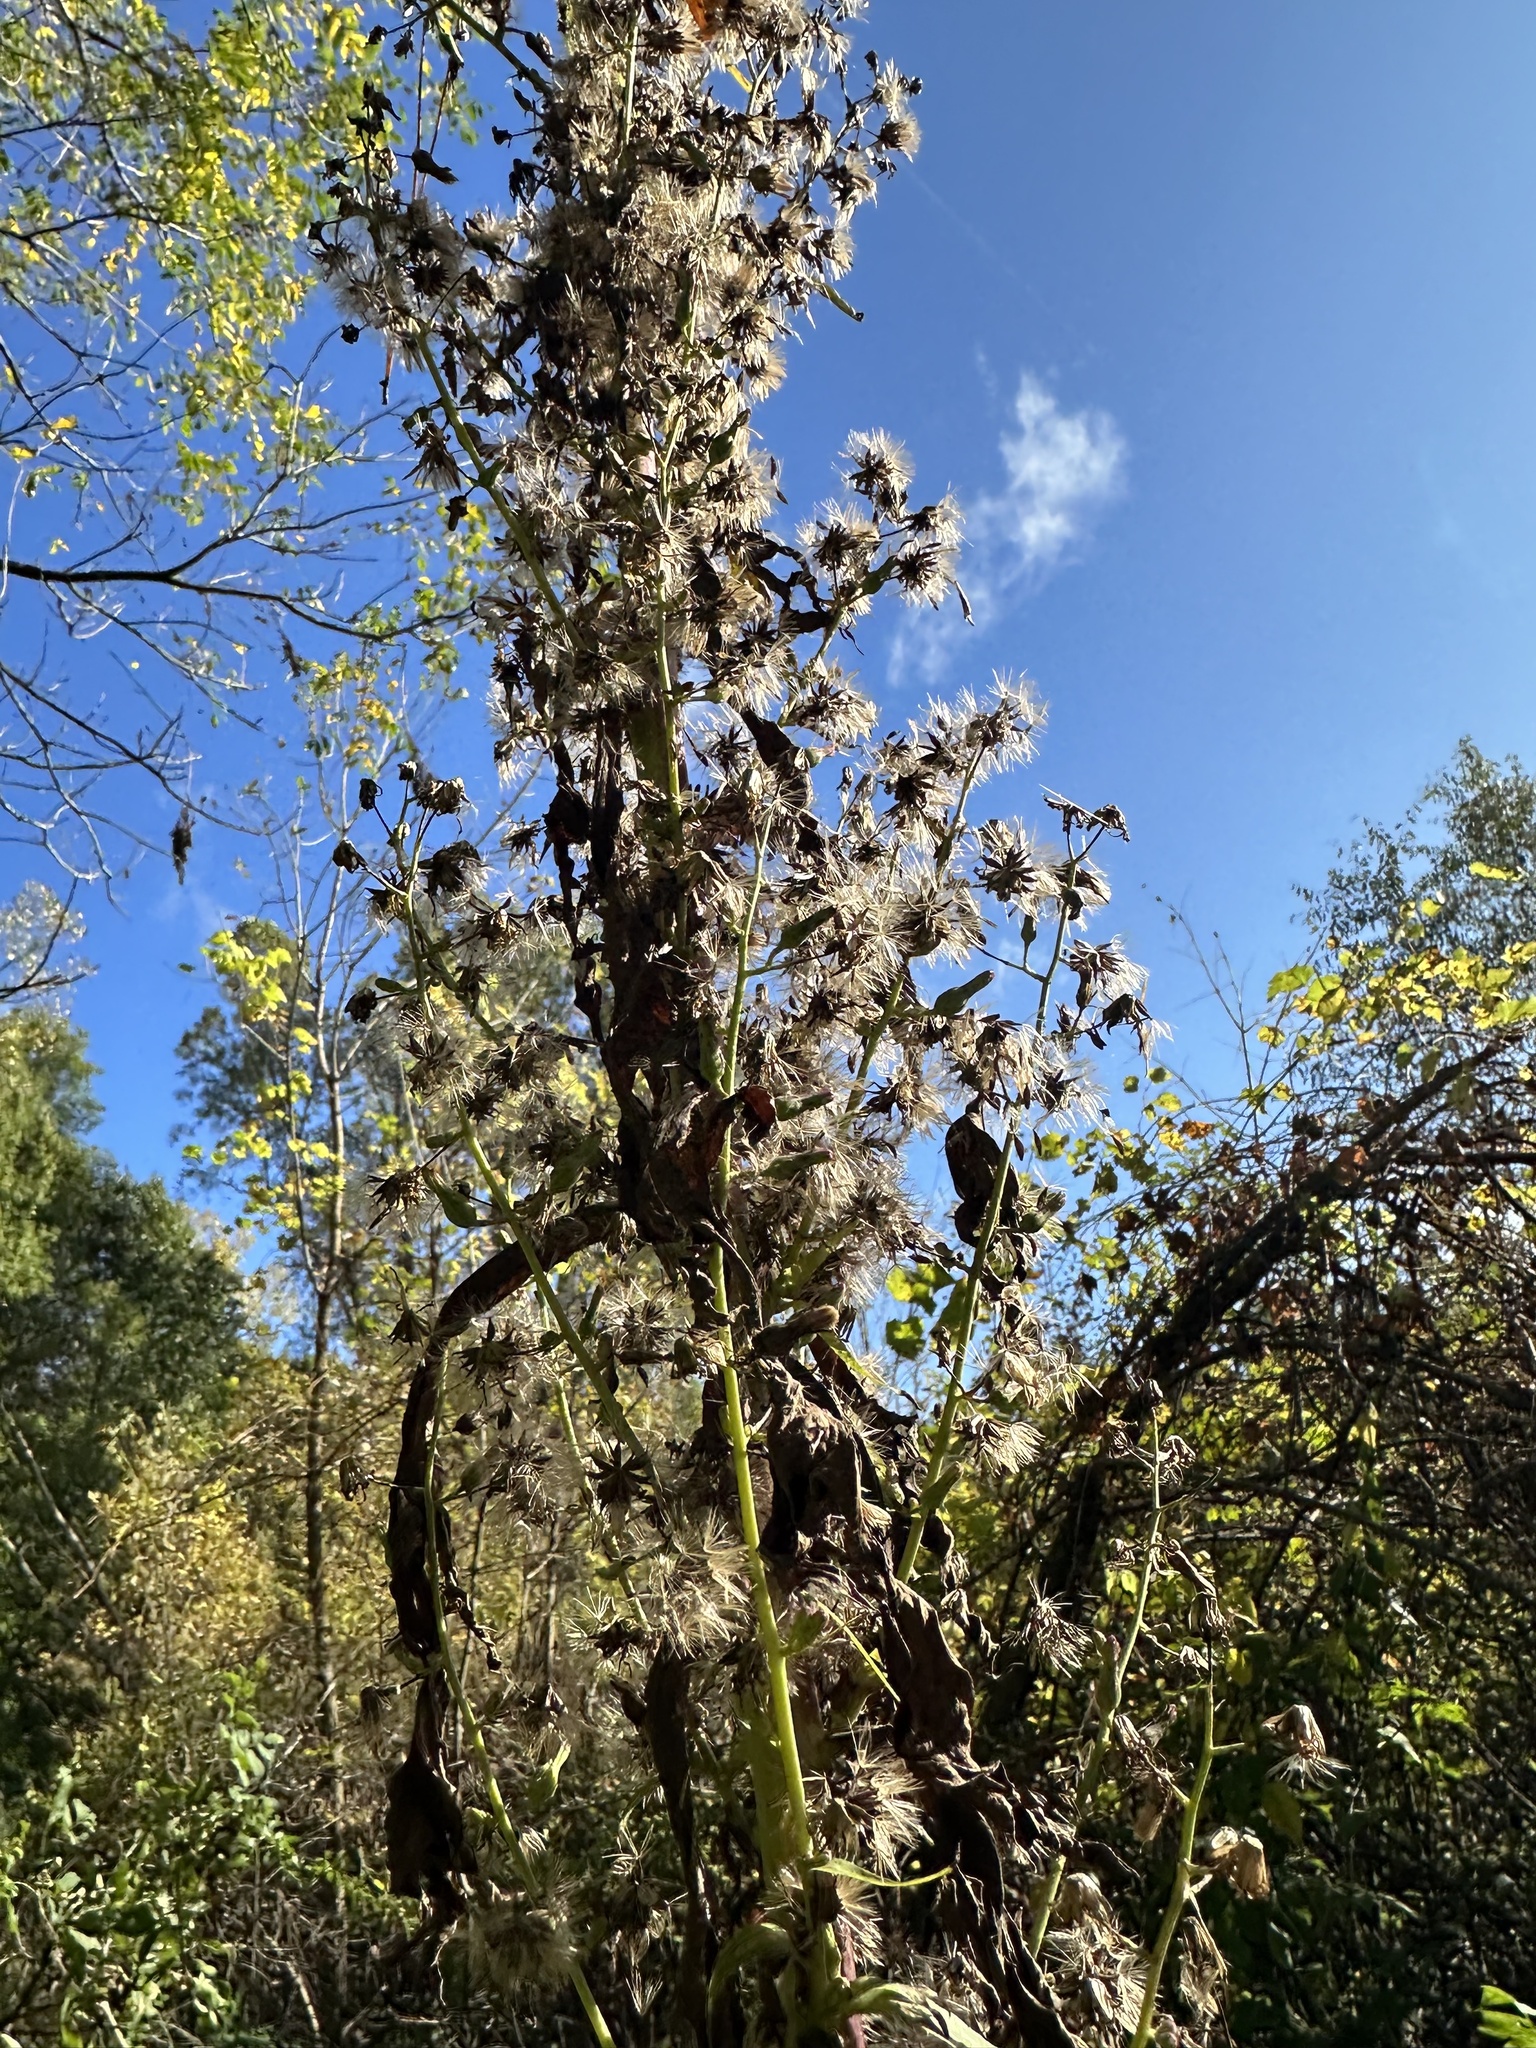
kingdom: Plantae
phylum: Tracheophyta
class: Magnoliopsida
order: Asterales
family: Asteraceae
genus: Lactuca
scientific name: Lactuca biennis
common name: Blue wood lettuce
